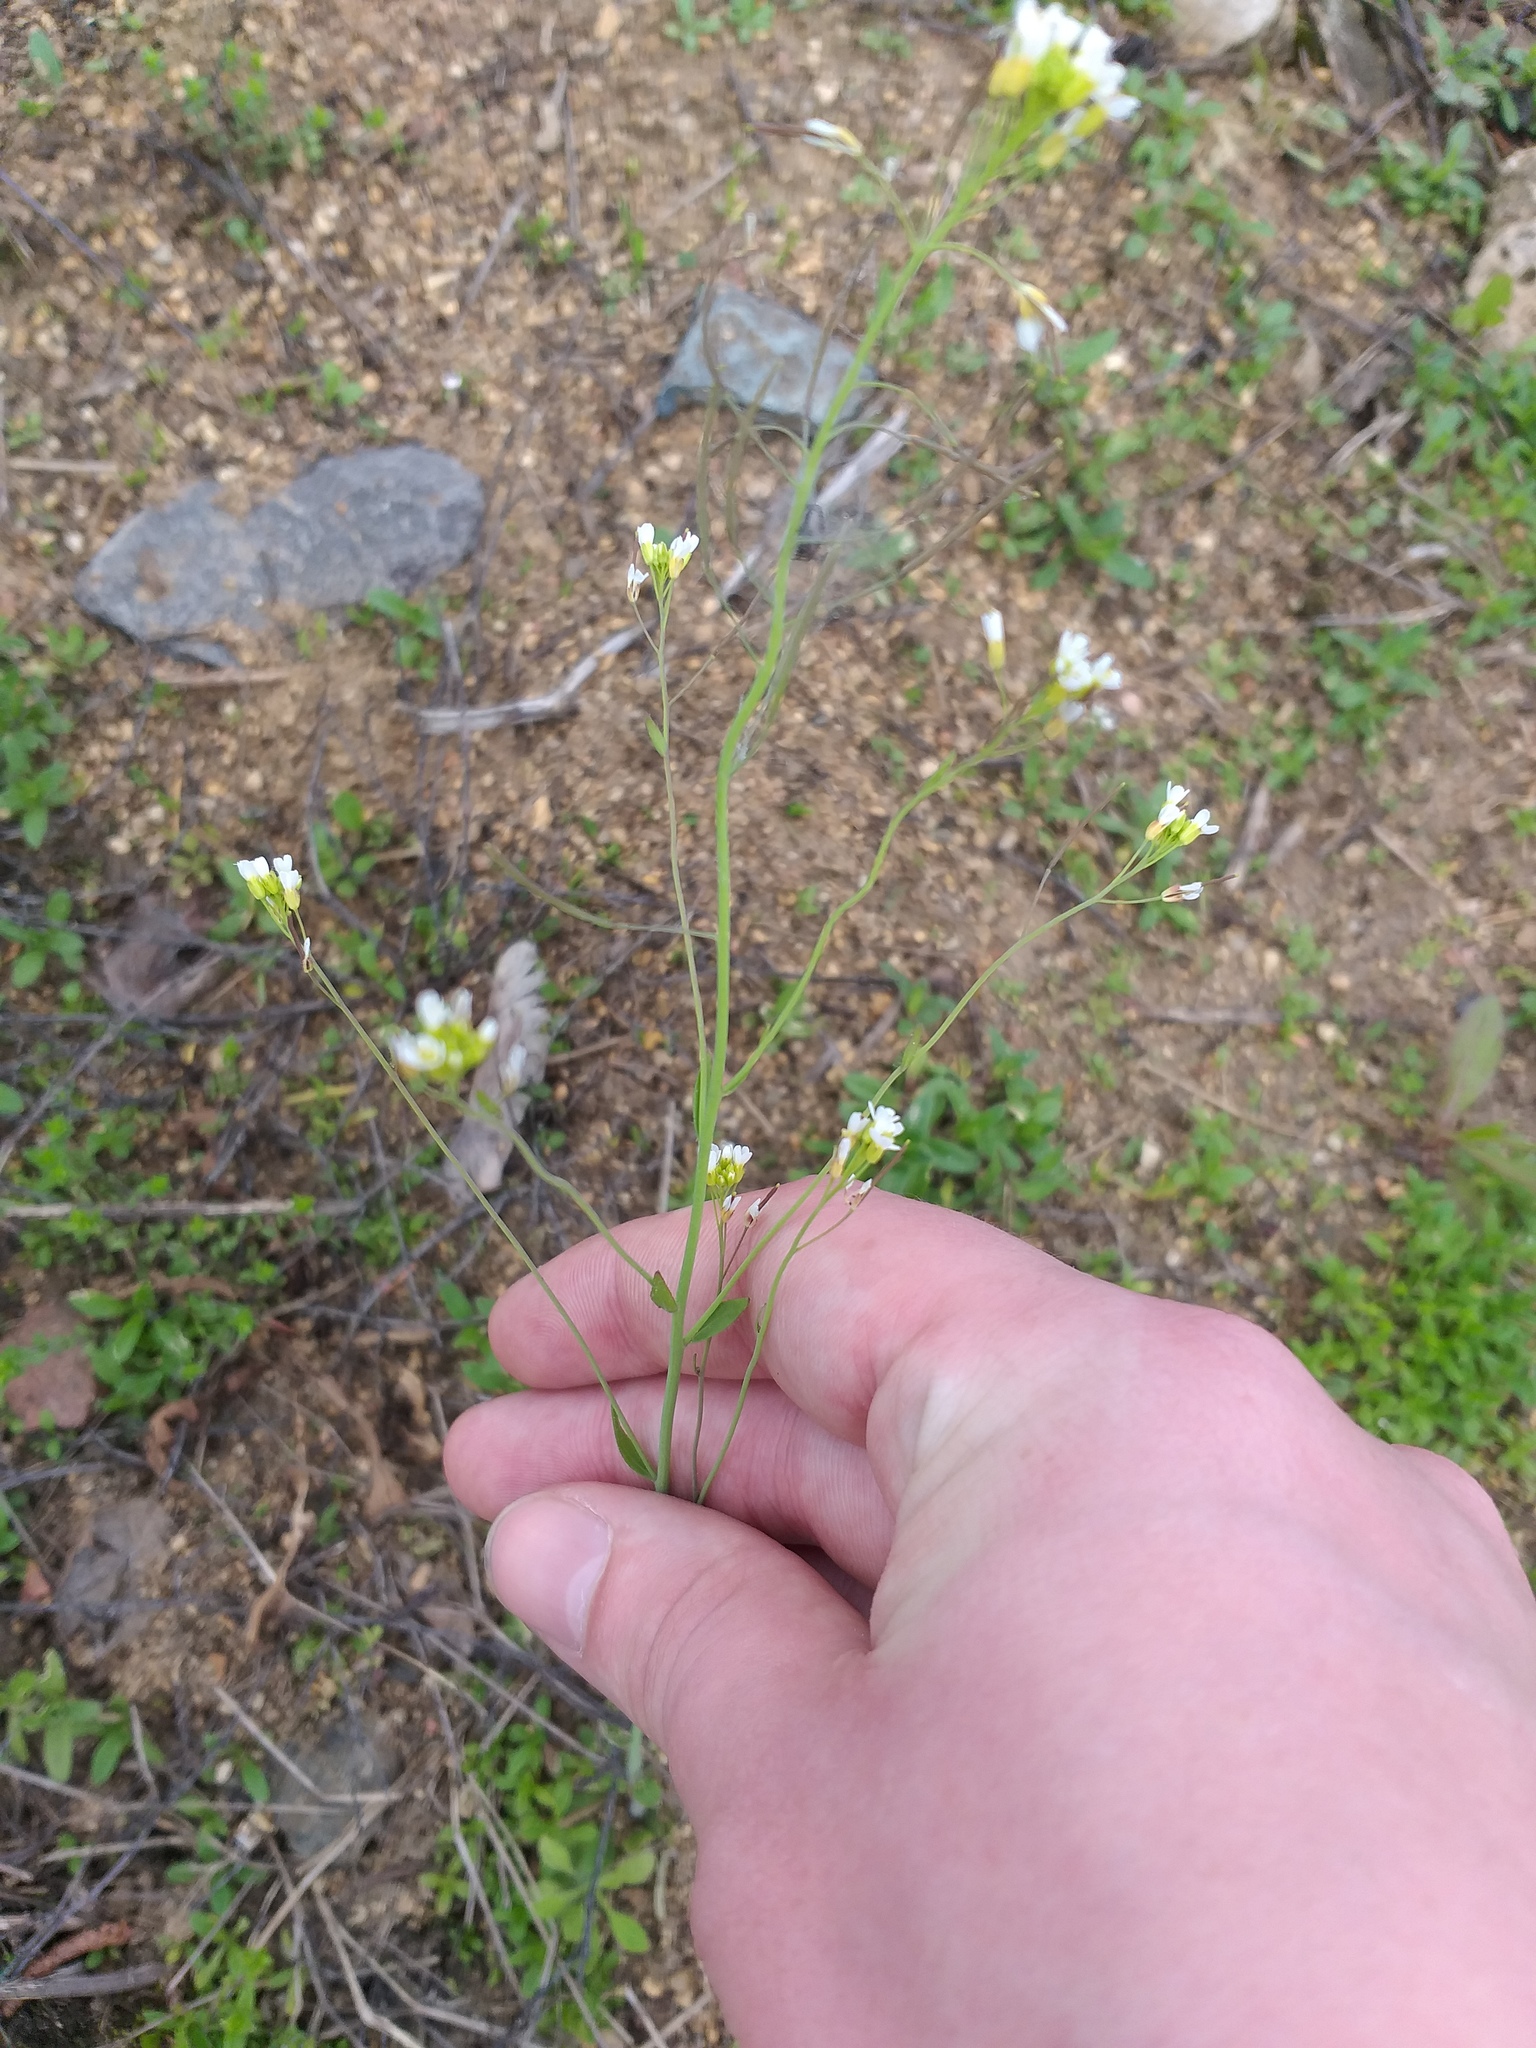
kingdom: Plantae
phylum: Tracheophyta
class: Magnoliopsida
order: Brassicales
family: Brassicaceae
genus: Arabidopsis
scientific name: Arabidopsis thaliana
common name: Thale cress
